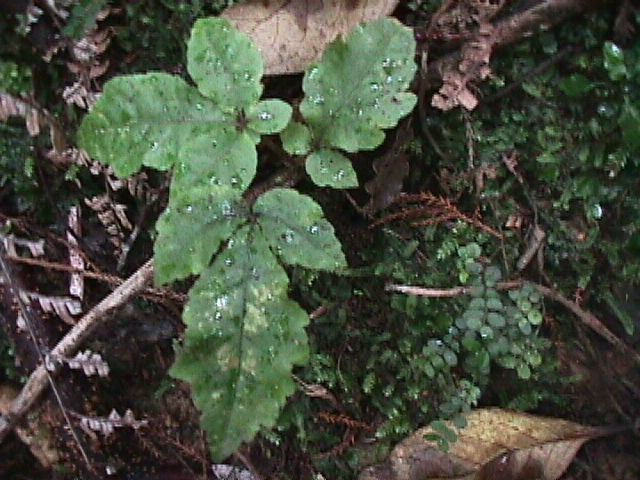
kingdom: Plantae
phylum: Tracheophyta
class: Magnoliopsida
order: Apiales
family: Araliaceae
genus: Schefflera
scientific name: Schefflera digitata
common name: Pate
